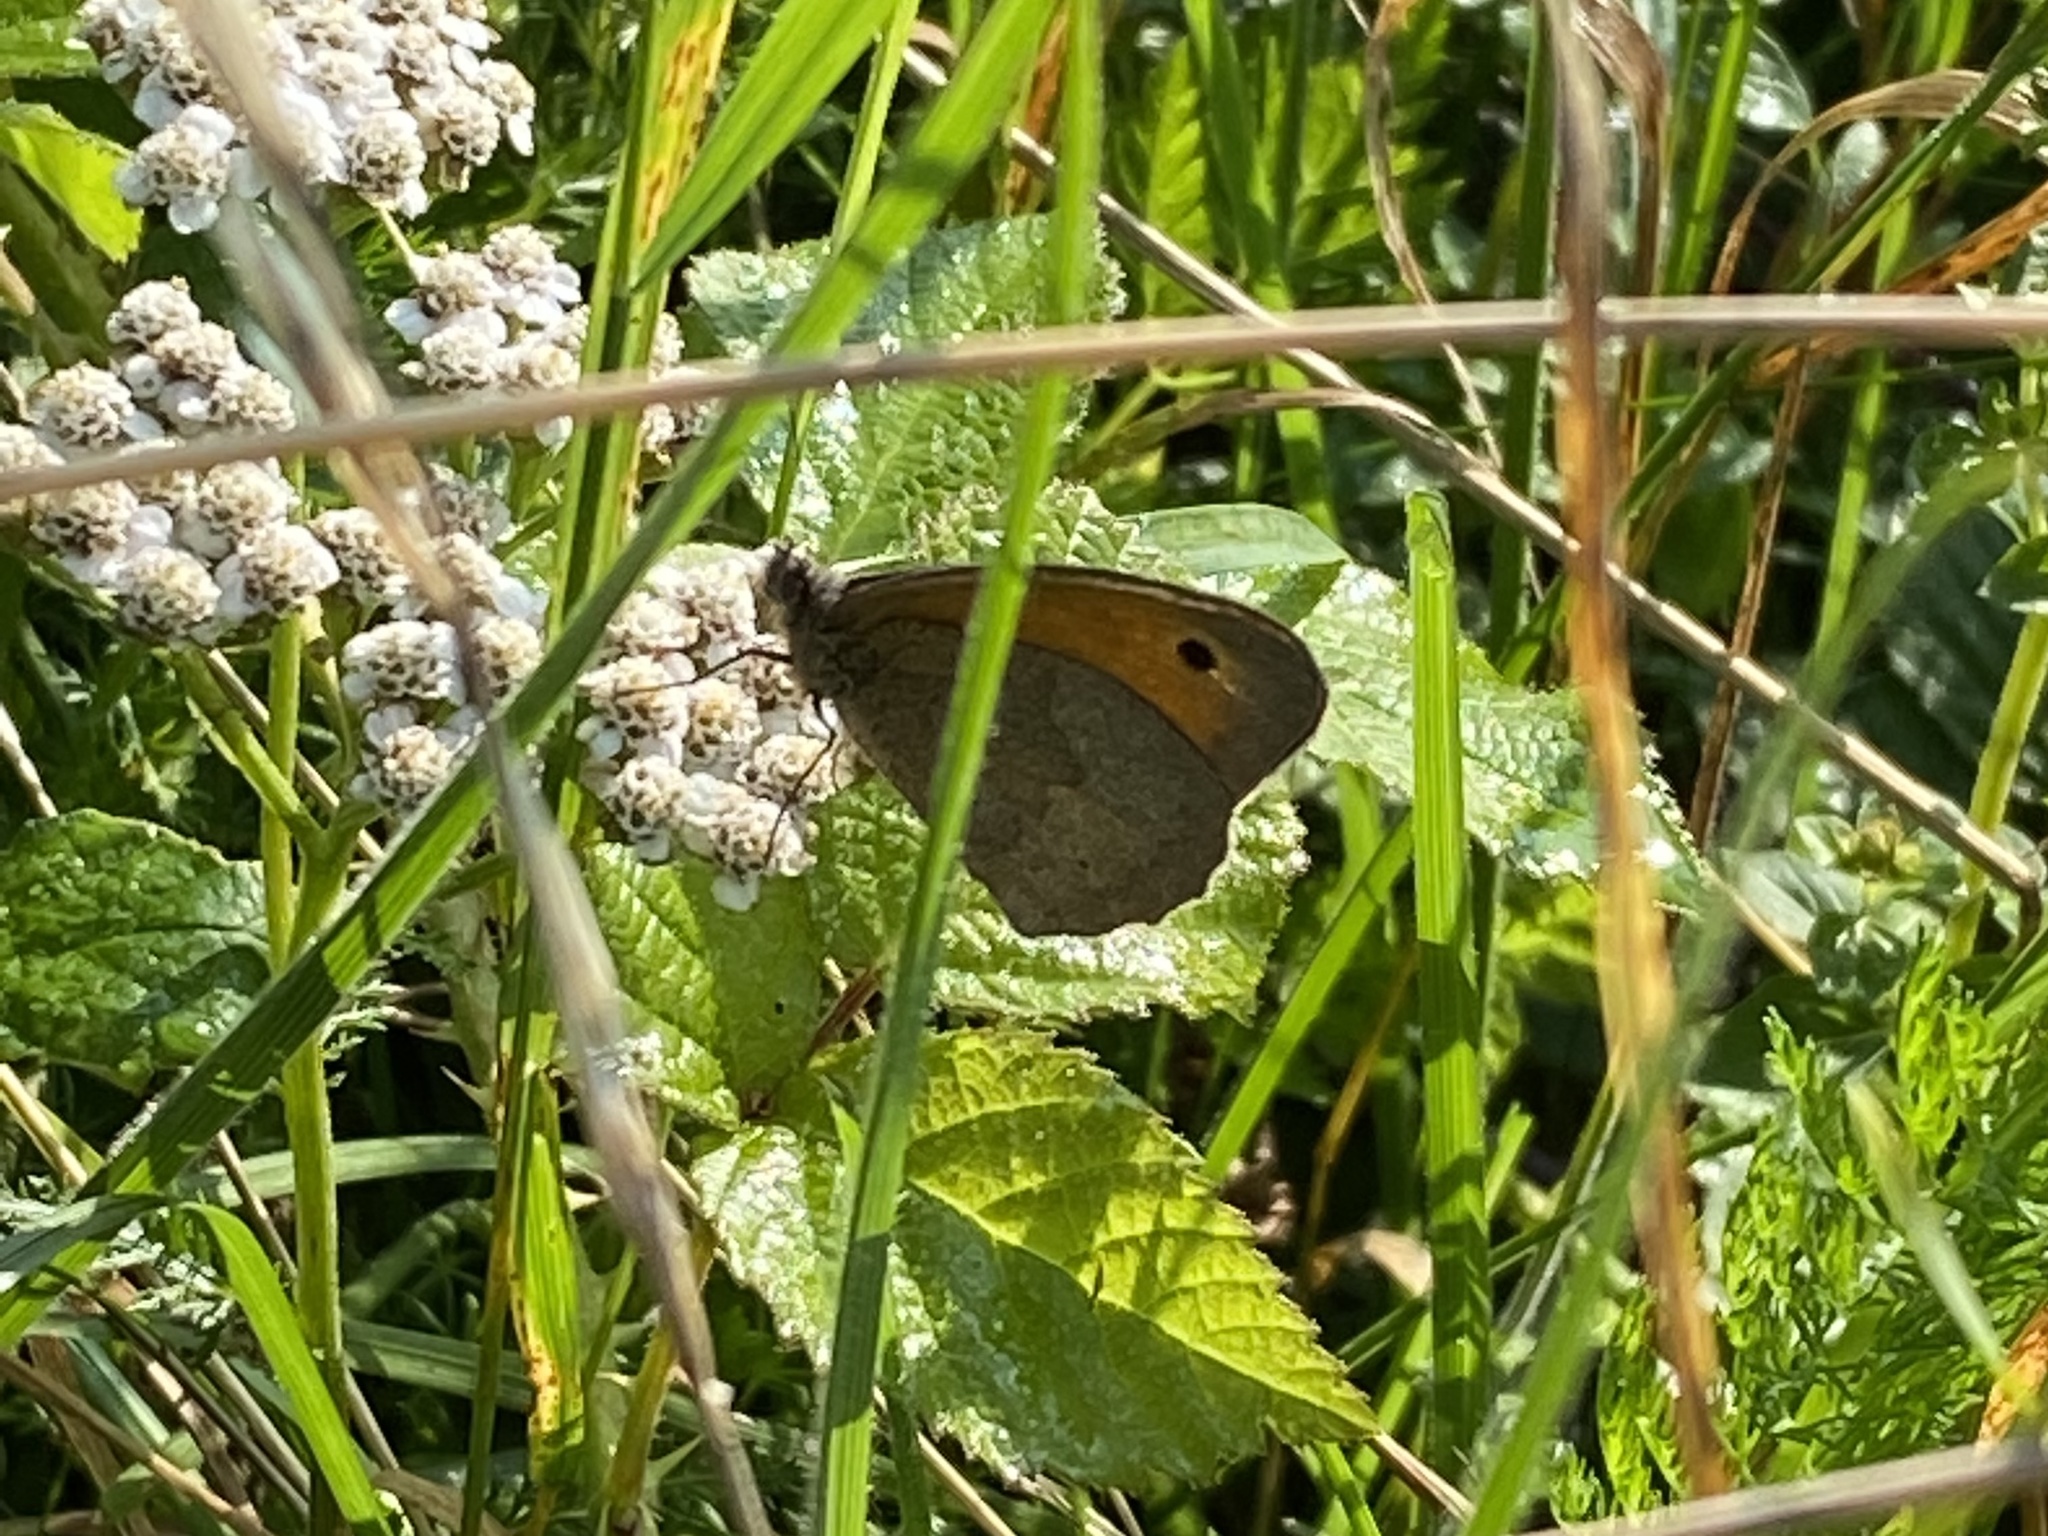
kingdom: Animalia
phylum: Arthropoda
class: Insecta
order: Lepidoptera
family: Nymphalidae
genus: Maniola
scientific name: Maniola jurtina
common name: Meadow brown
